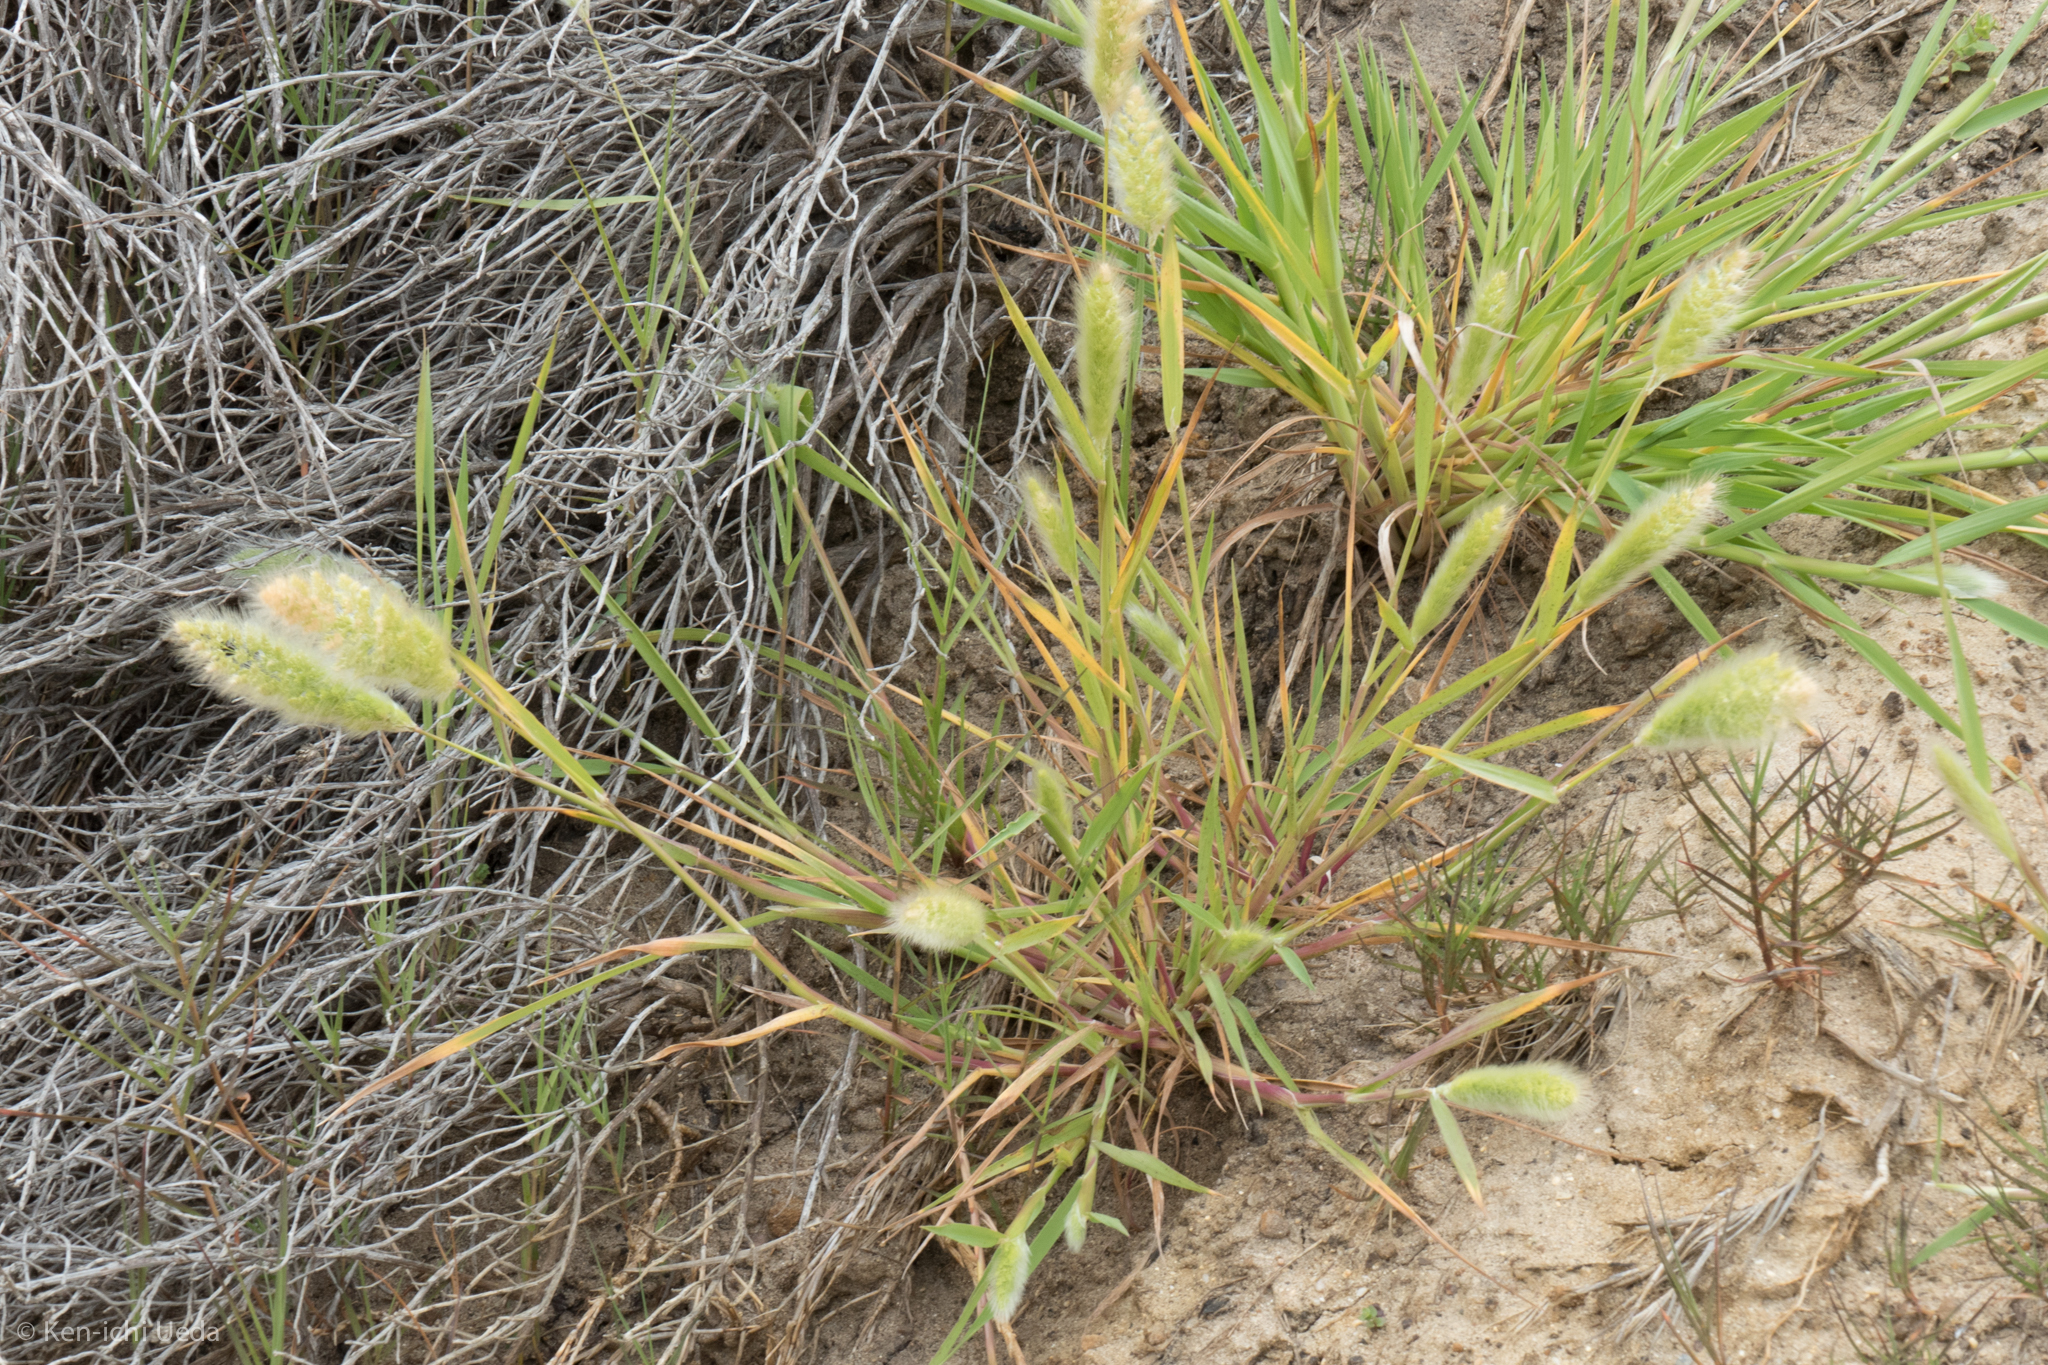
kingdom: Plantae
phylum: Tracheophyta
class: Liliopsida
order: Poales
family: Poaceae
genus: Polypogon
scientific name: Polypogon monspeliensis
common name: Annual rabbitsfoot grass
